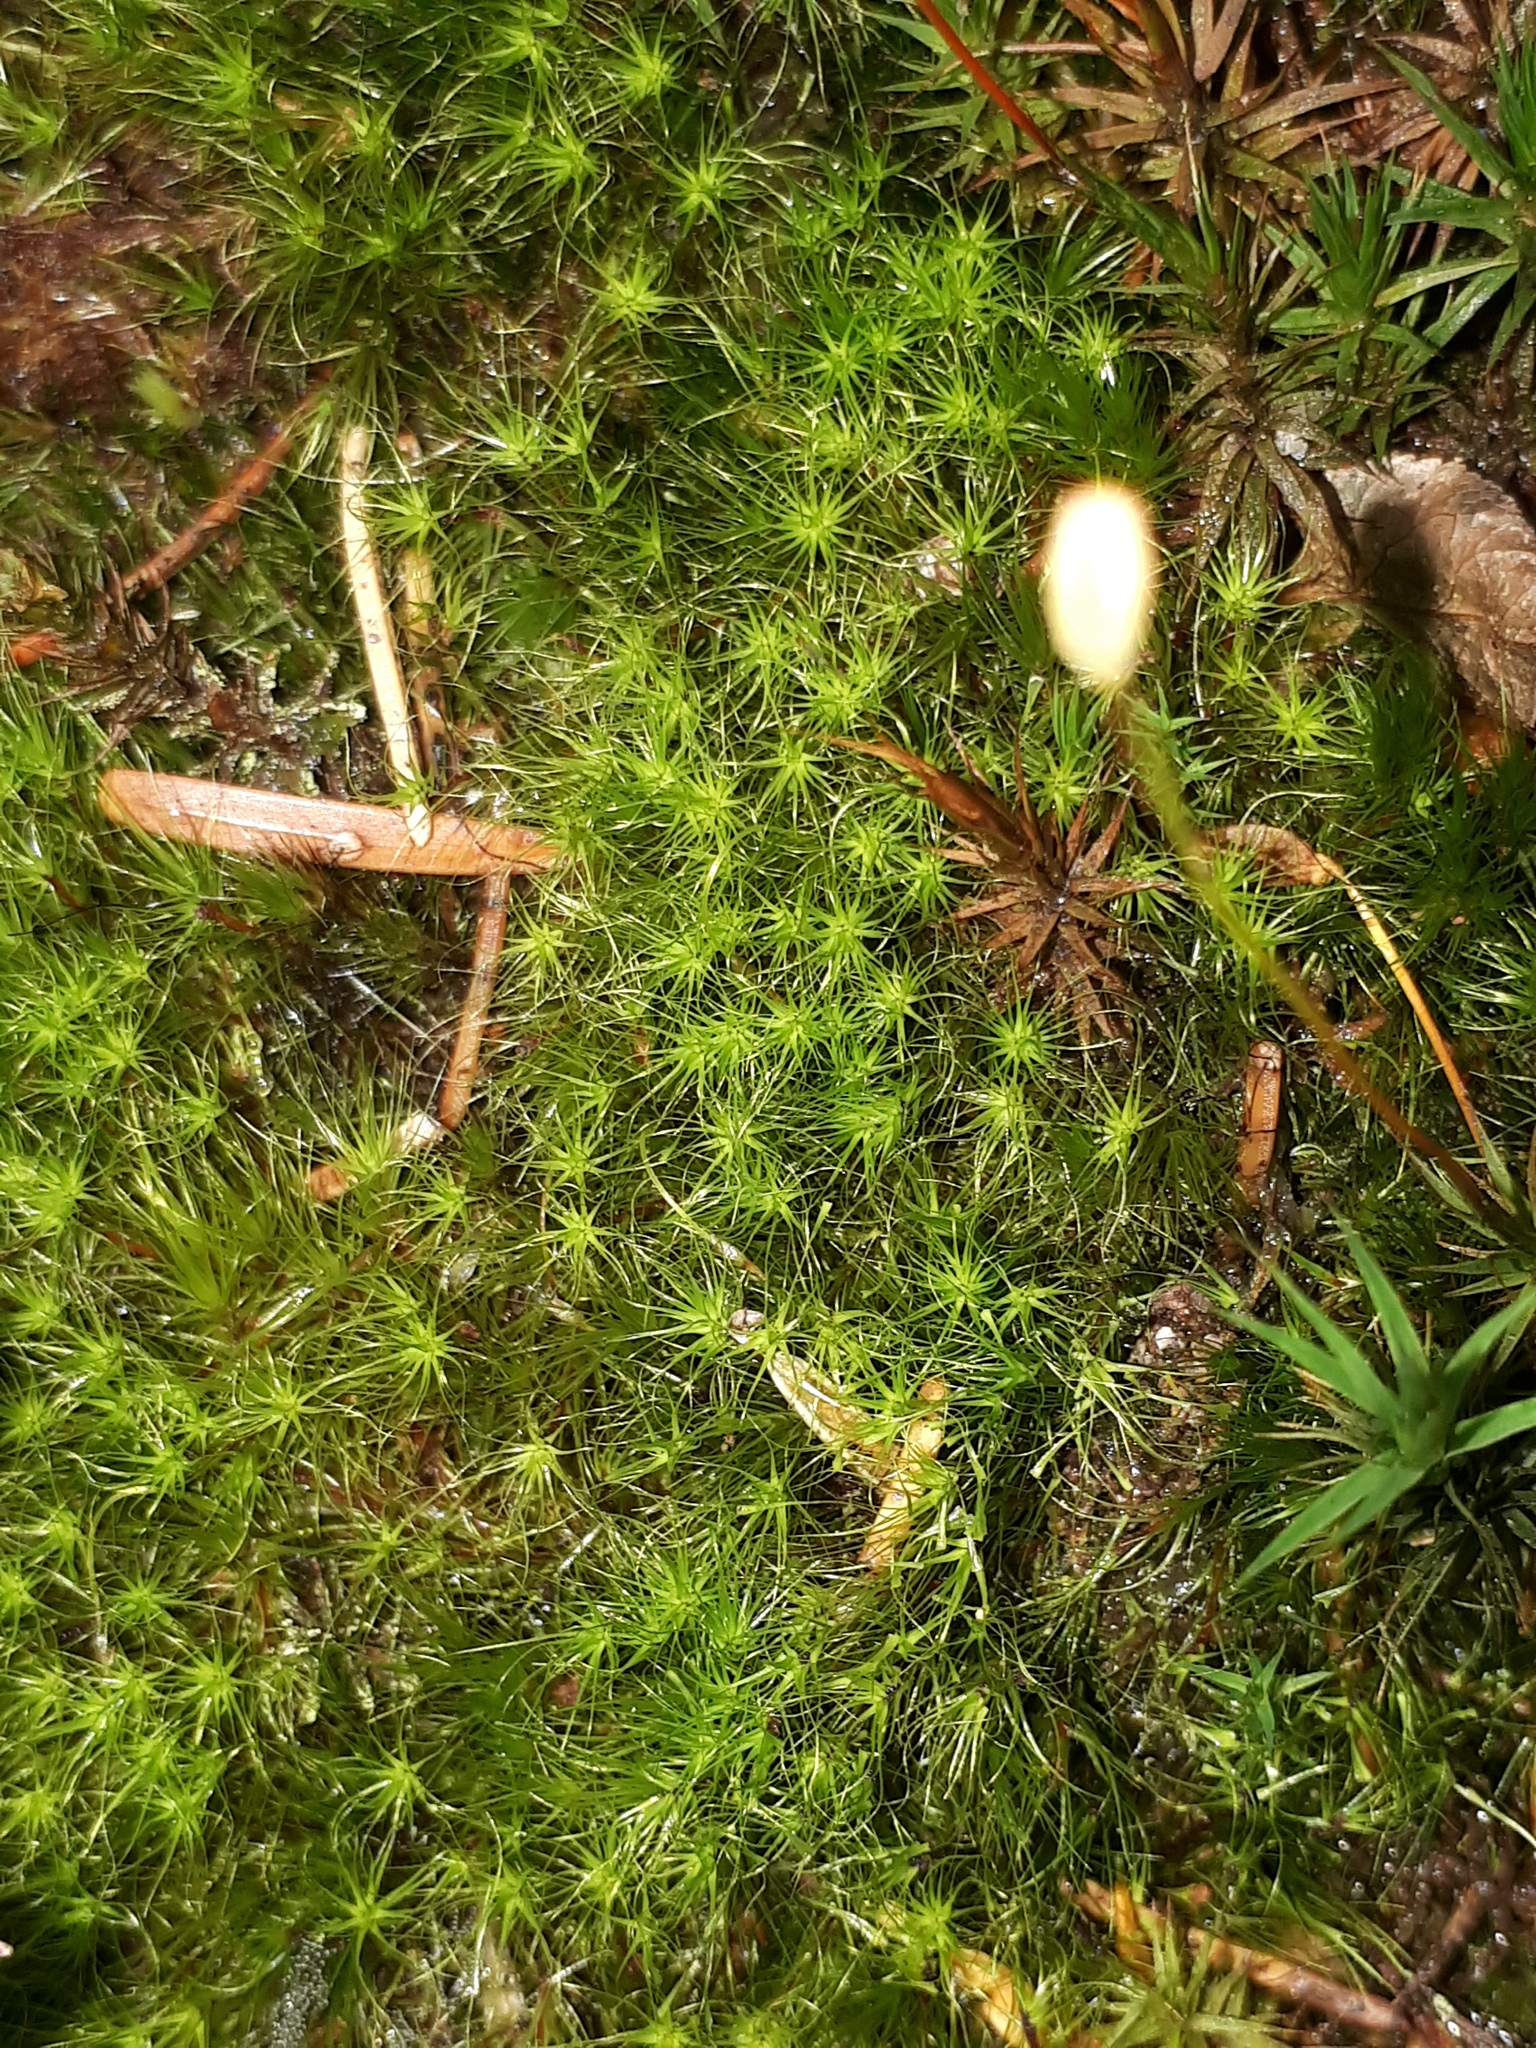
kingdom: Plantae
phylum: Bryophyta
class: Bryopsida
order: Dicranales
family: Leucobryaceae
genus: Dicranodontium
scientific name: Dicranodontium denudatum
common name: Beaked bow moss
